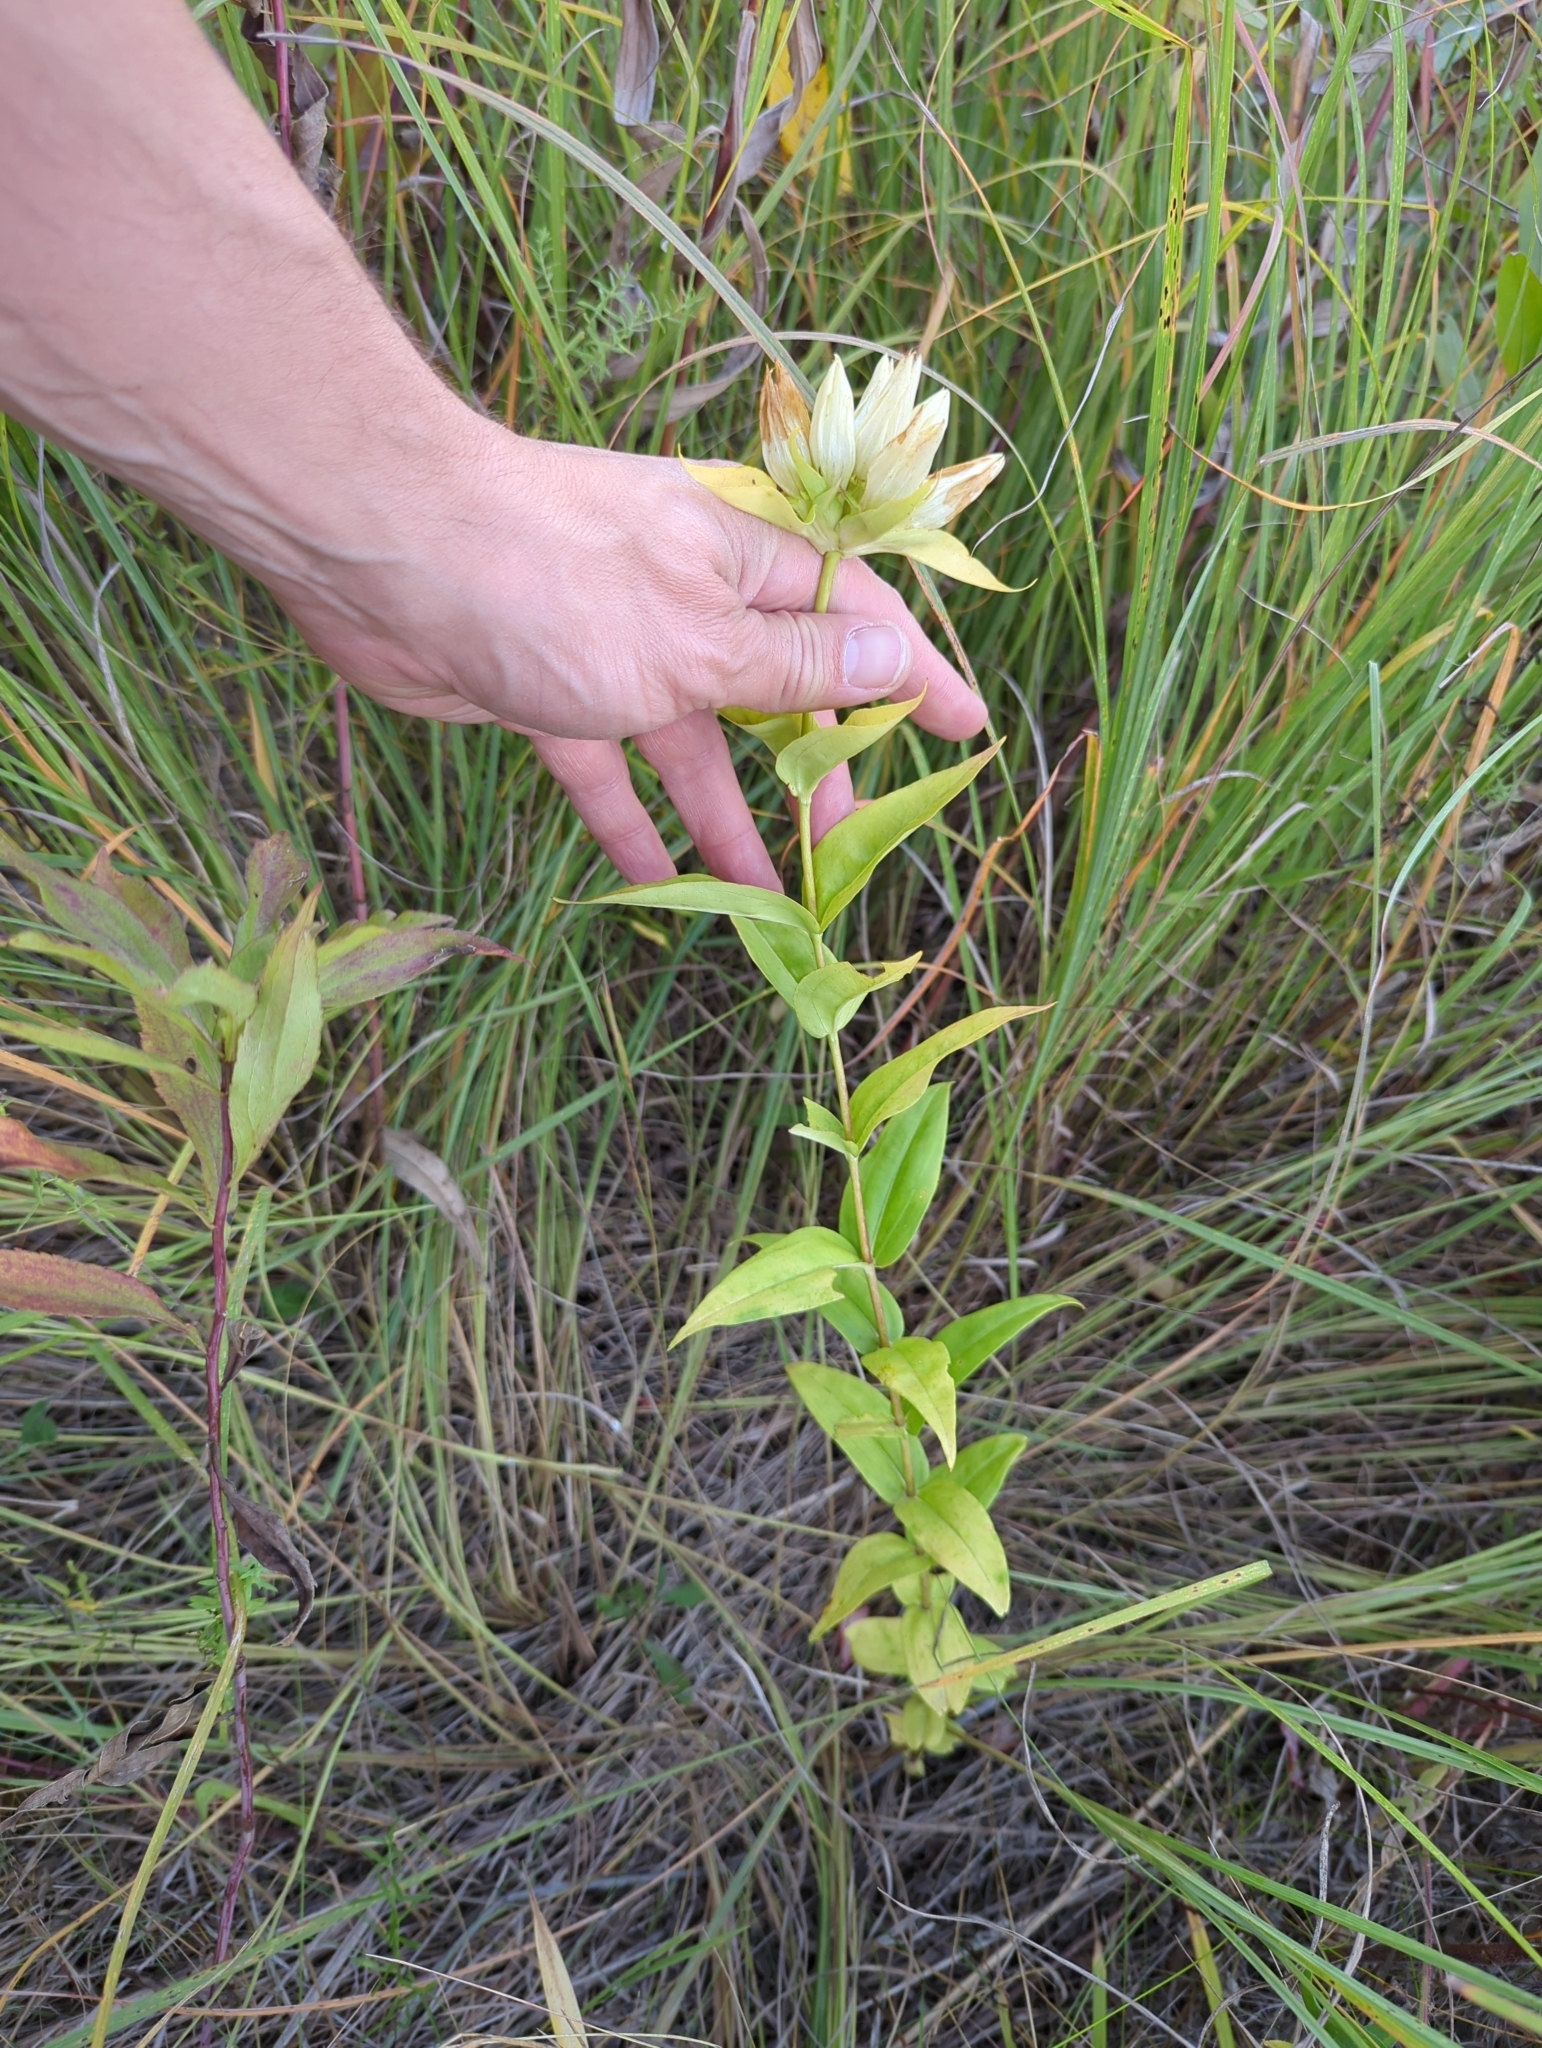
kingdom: Plantae
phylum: Tracheophyta
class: Magnoliopsida
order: Gentianales
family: Gentianaceae
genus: Gentiana
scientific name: Gentiana alba
